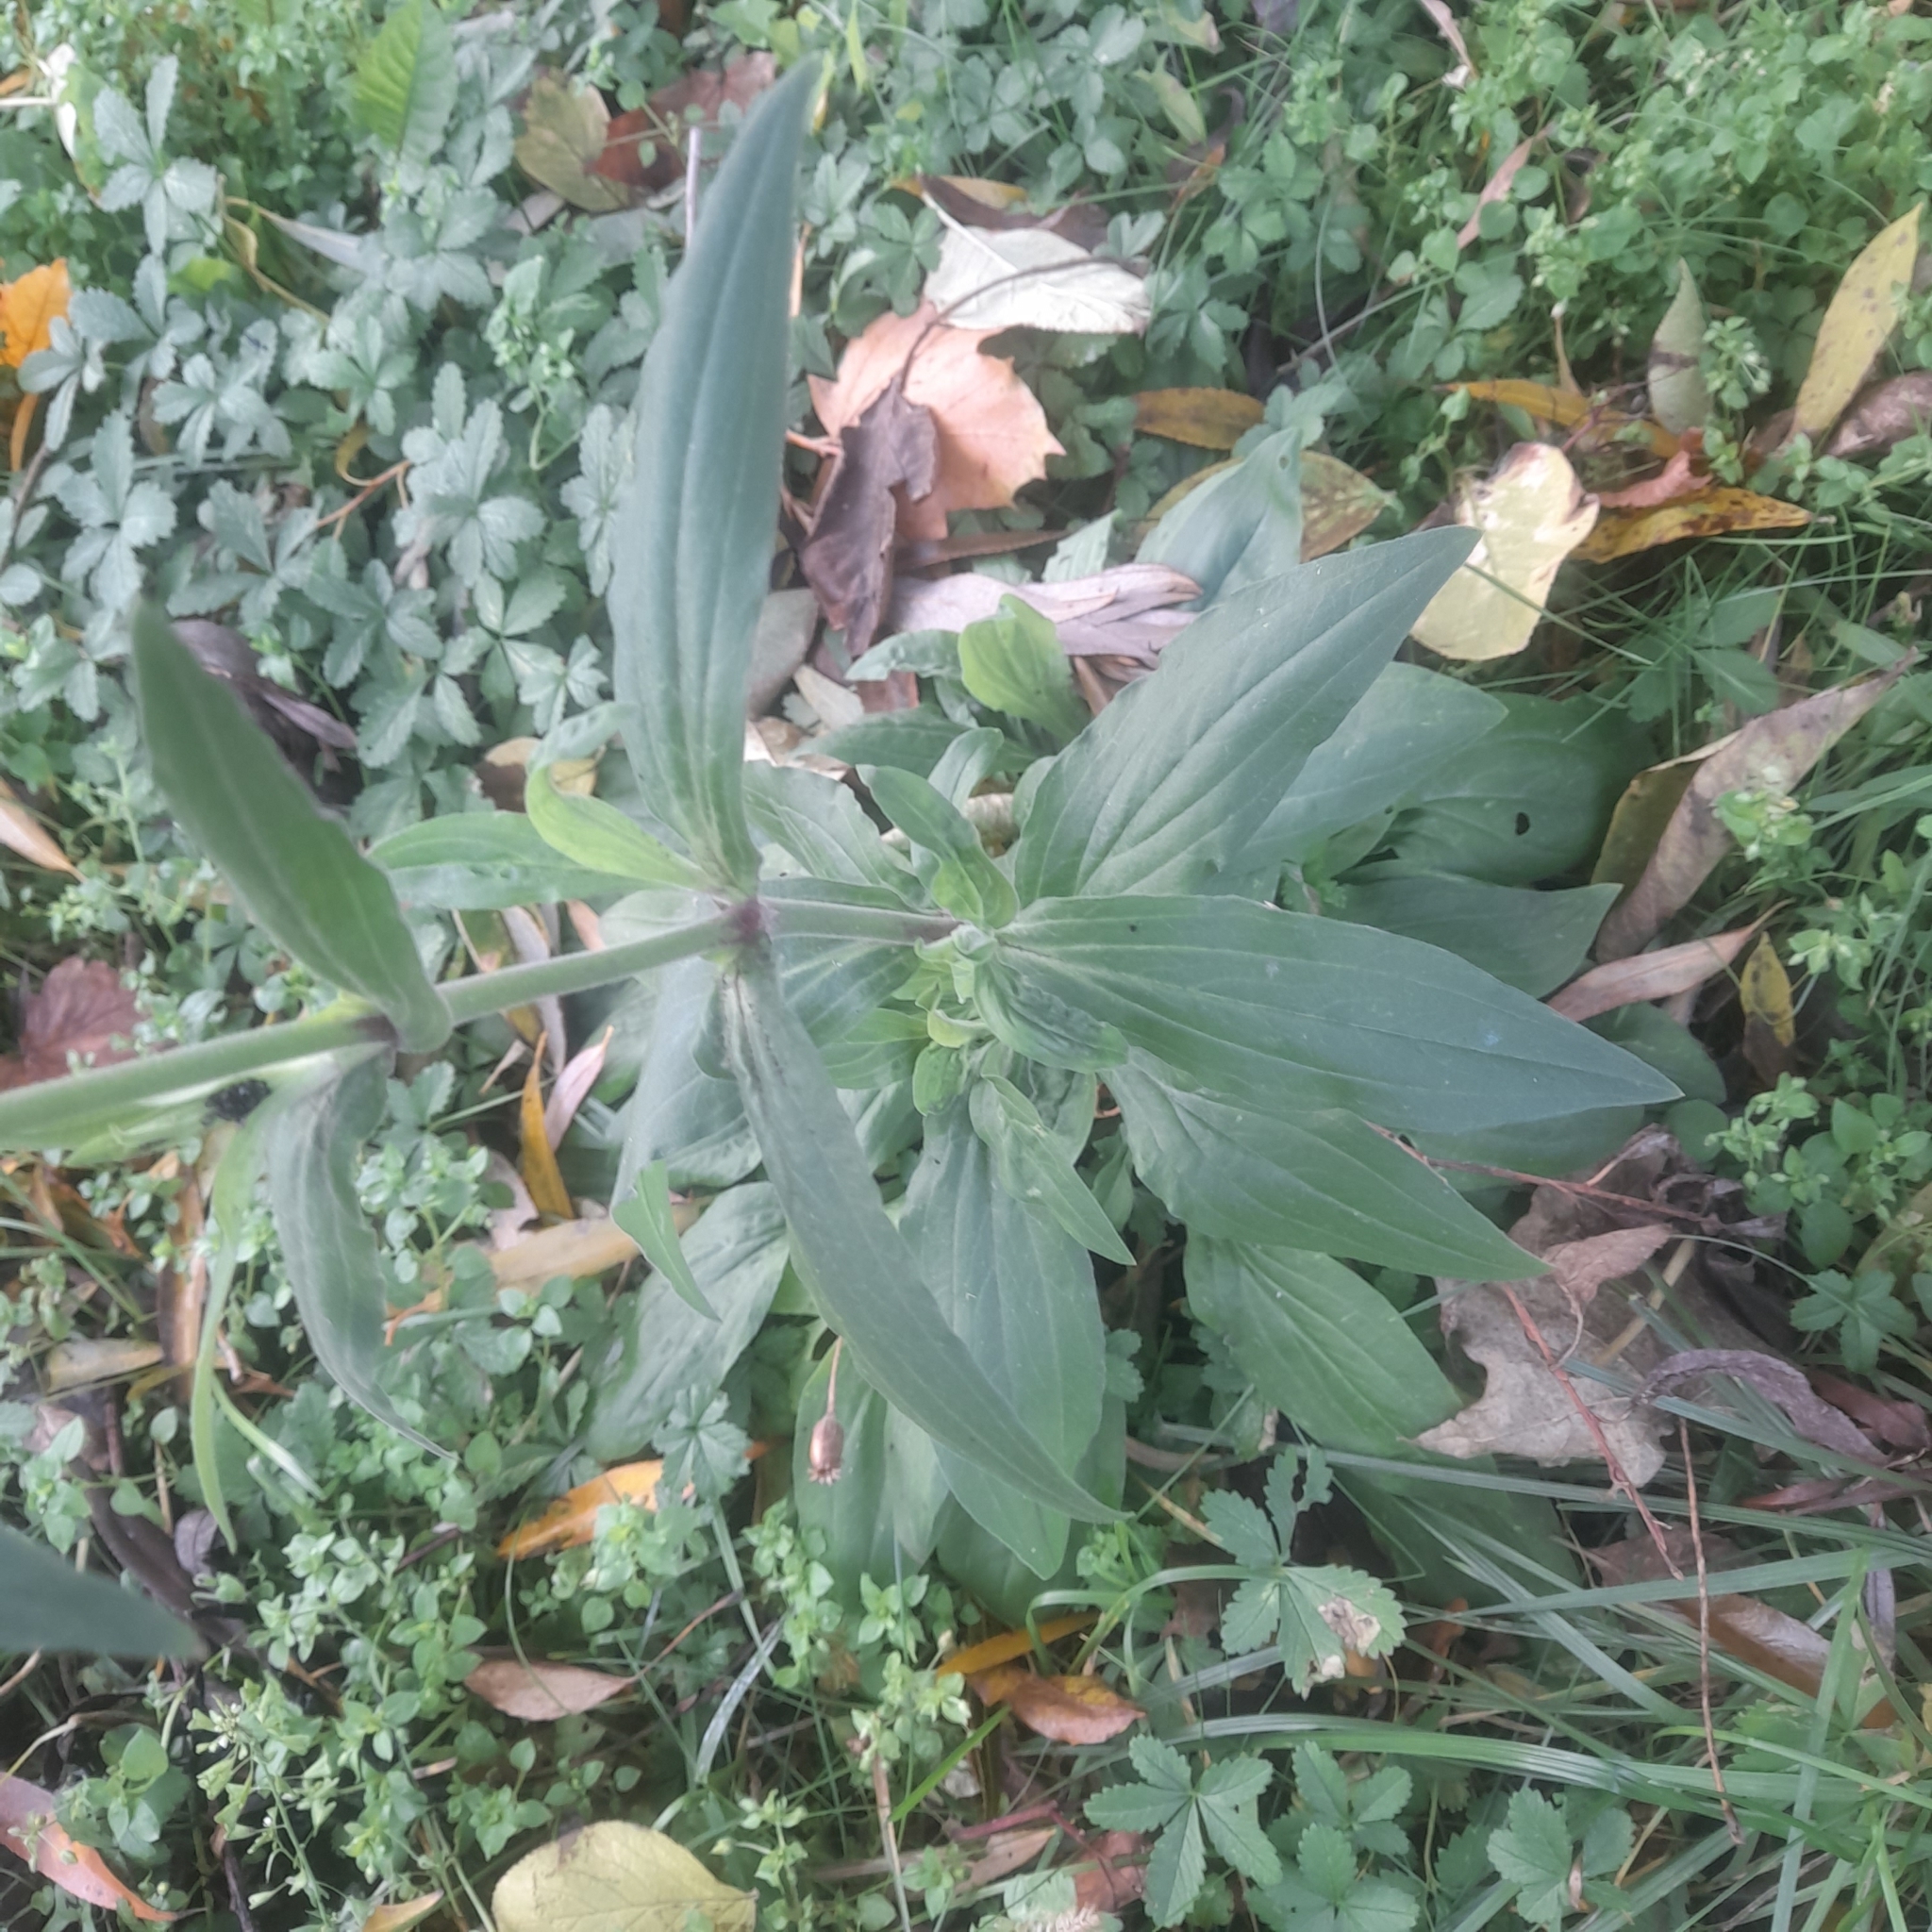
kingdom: Plantae
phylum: Tracheophyta
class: Magnoliopsida
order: Caryophyllales
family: Caryophyllaceae
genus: Silene
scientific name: Silene latifolia
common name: White campion
